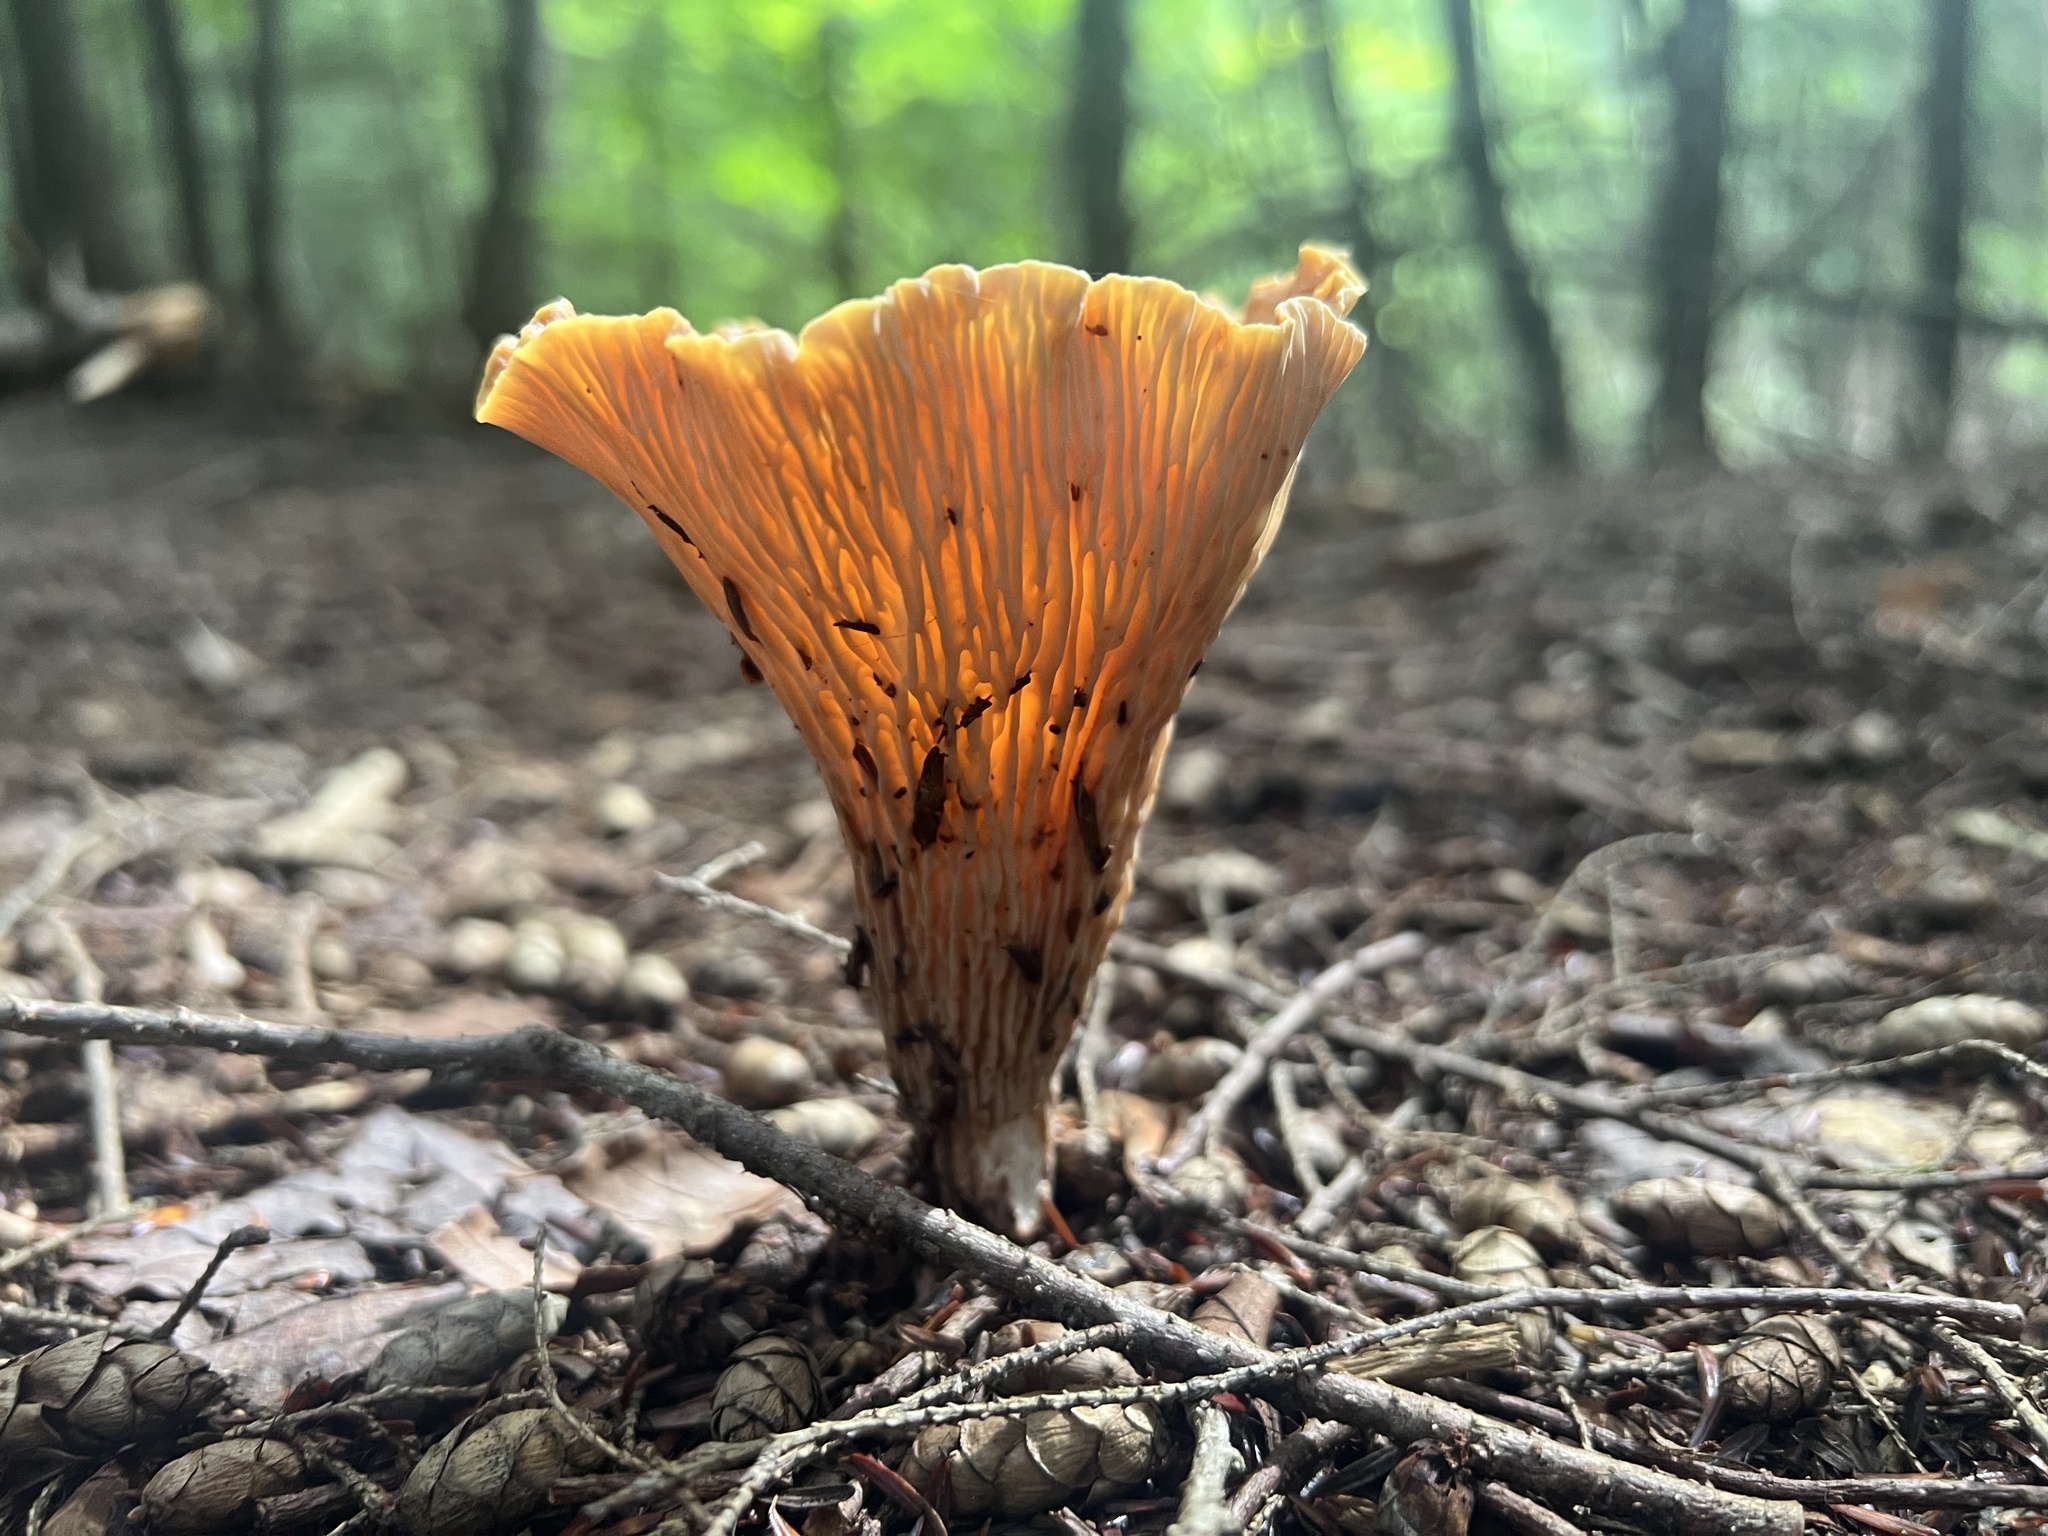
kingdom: Fungi
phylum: Basidiomycota
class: Agaricomycetes
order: Gomphales
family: Gomphaceae
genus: Turbinellus
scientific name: Turbinellus floccosus
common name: Scaly chanterelle
